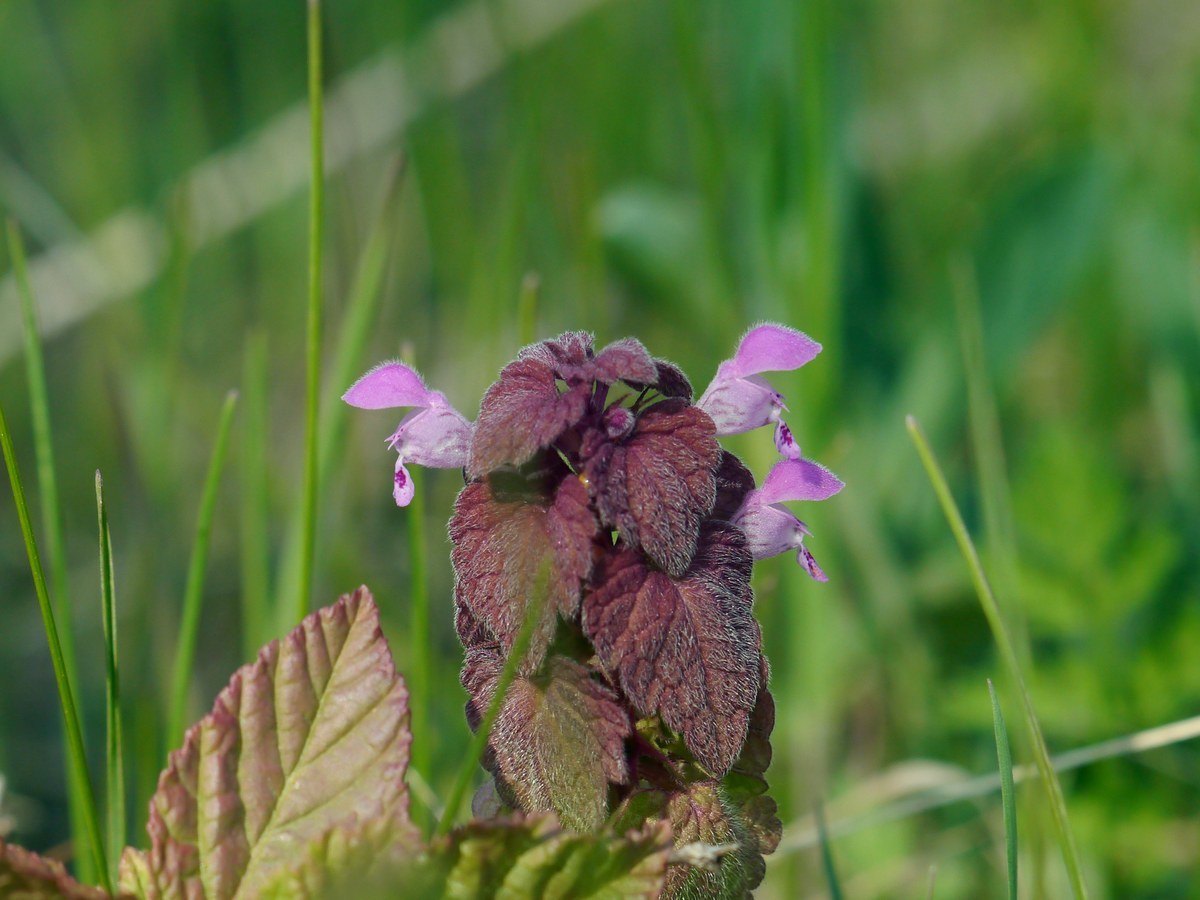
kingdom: Plantae
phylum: Tracheophyta
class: Magnoliopsida
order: Lamiales
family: Lamiaceae
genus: Lamium
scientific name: Lamium purpureum
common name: Red dead-nettle
